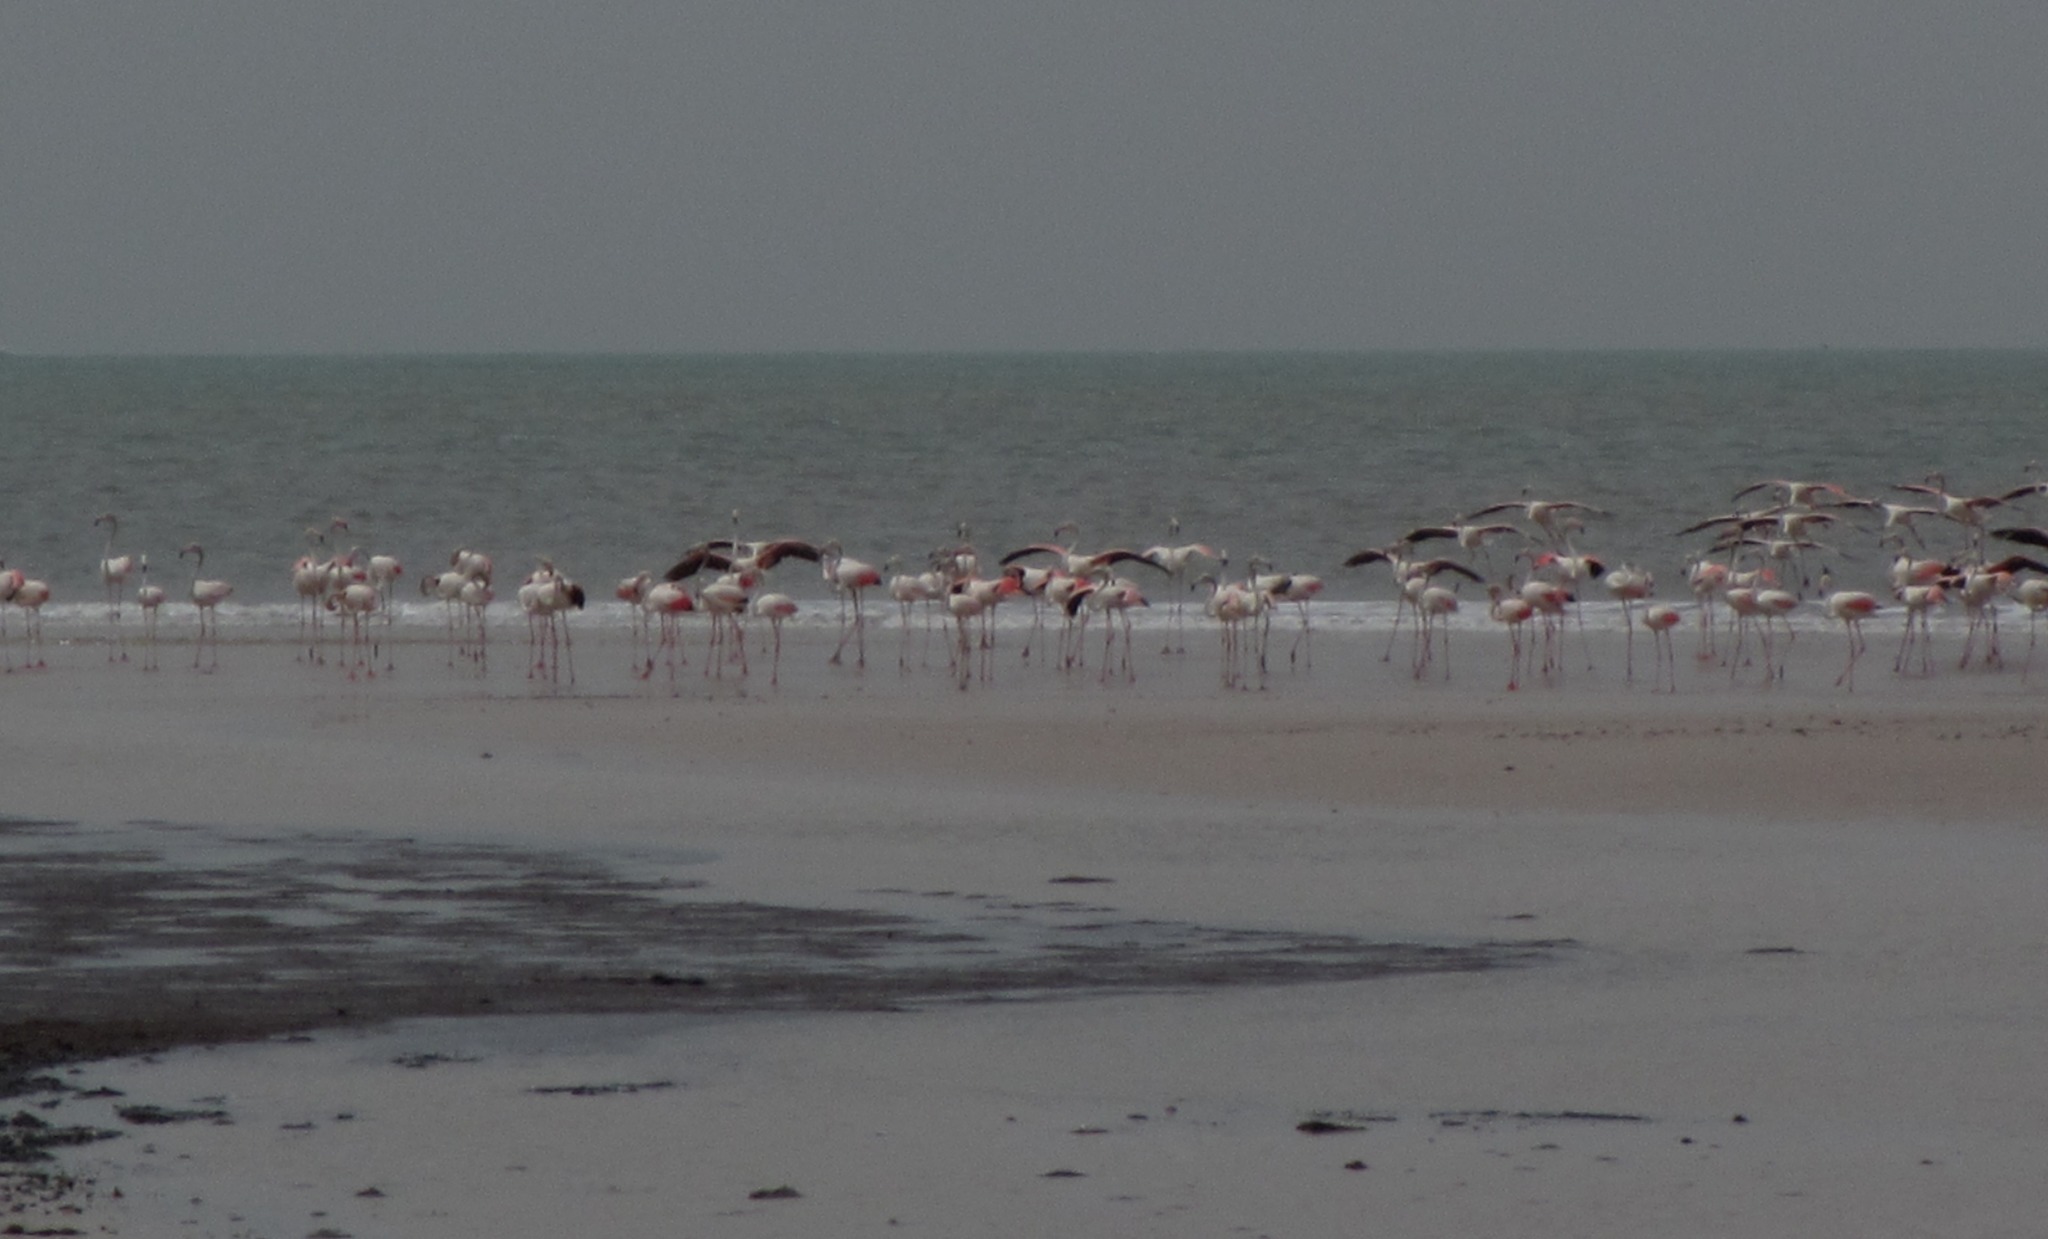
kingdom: Animalia
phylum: Chordata
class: Aves
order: Phoenicopteriformes
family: Phoenicopteridae
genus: Phoenicopterus
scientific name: Phoenicopterus roseus
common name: Greater flamingo
